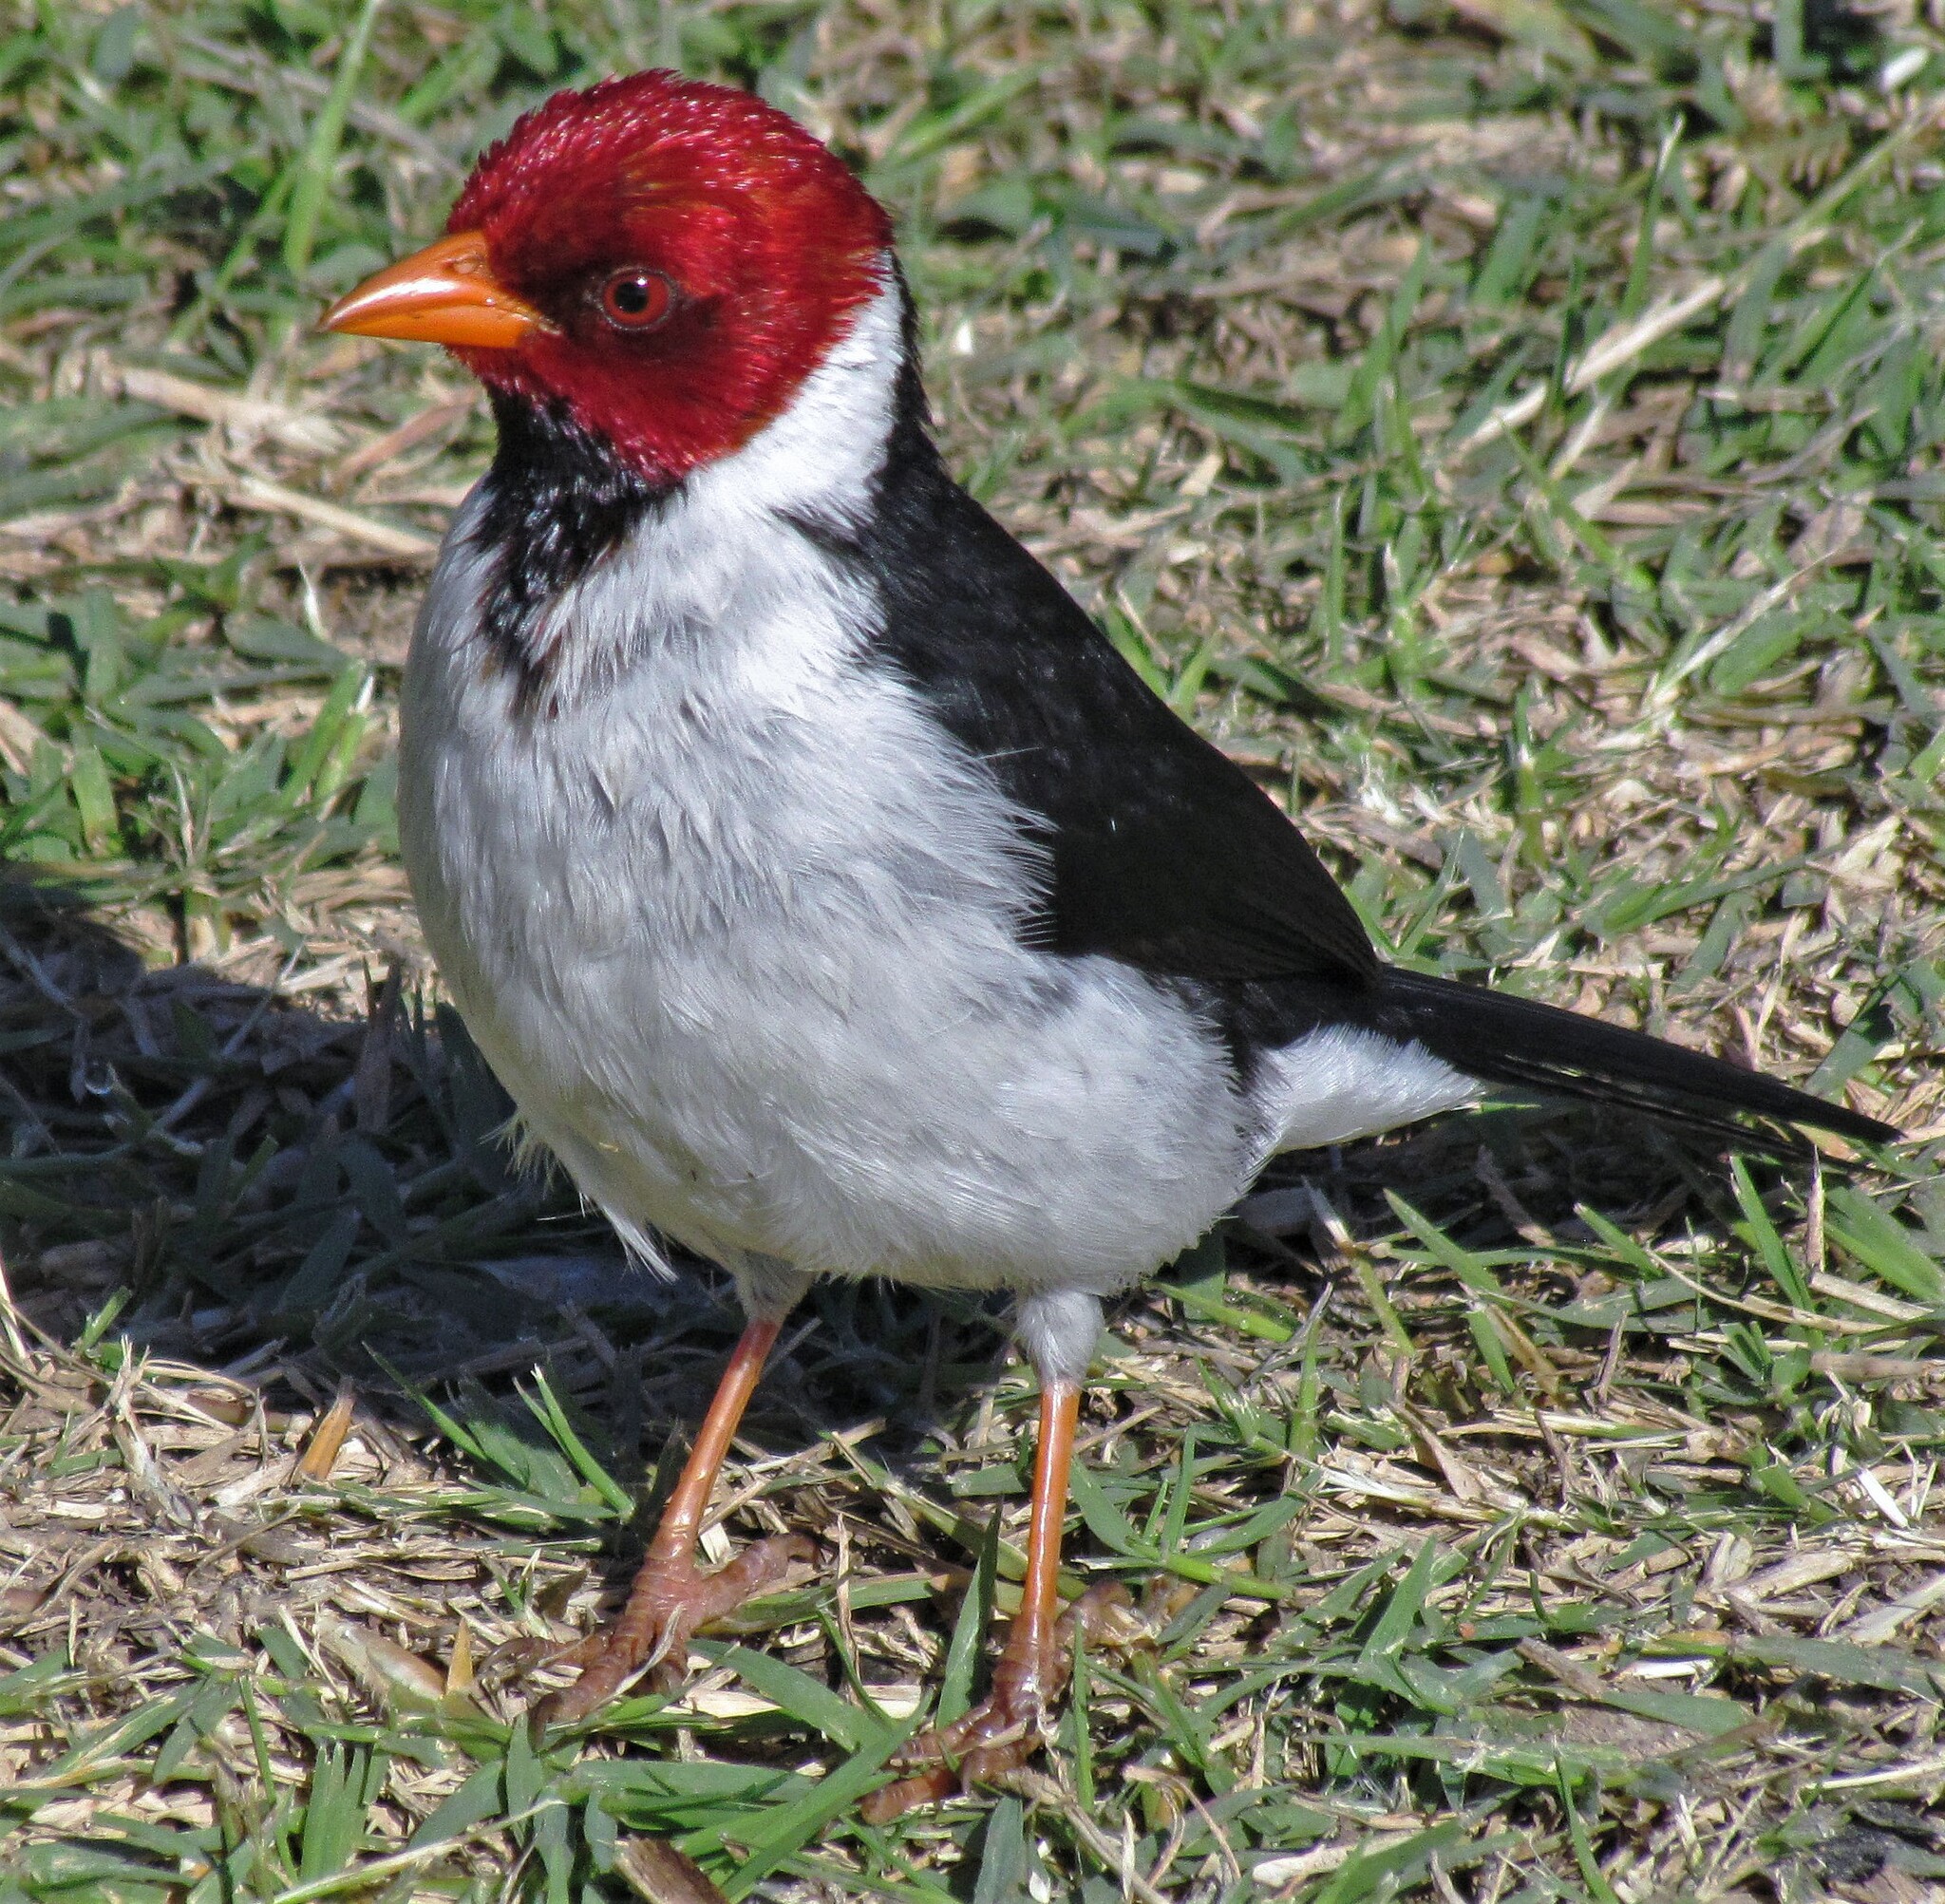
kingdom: Animalia
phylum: Chordata
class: Aves
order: Passeriformes
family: Thraupidae
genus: Paroaria
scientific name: Paroaria capitata
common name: Yellow-billed cardinal
